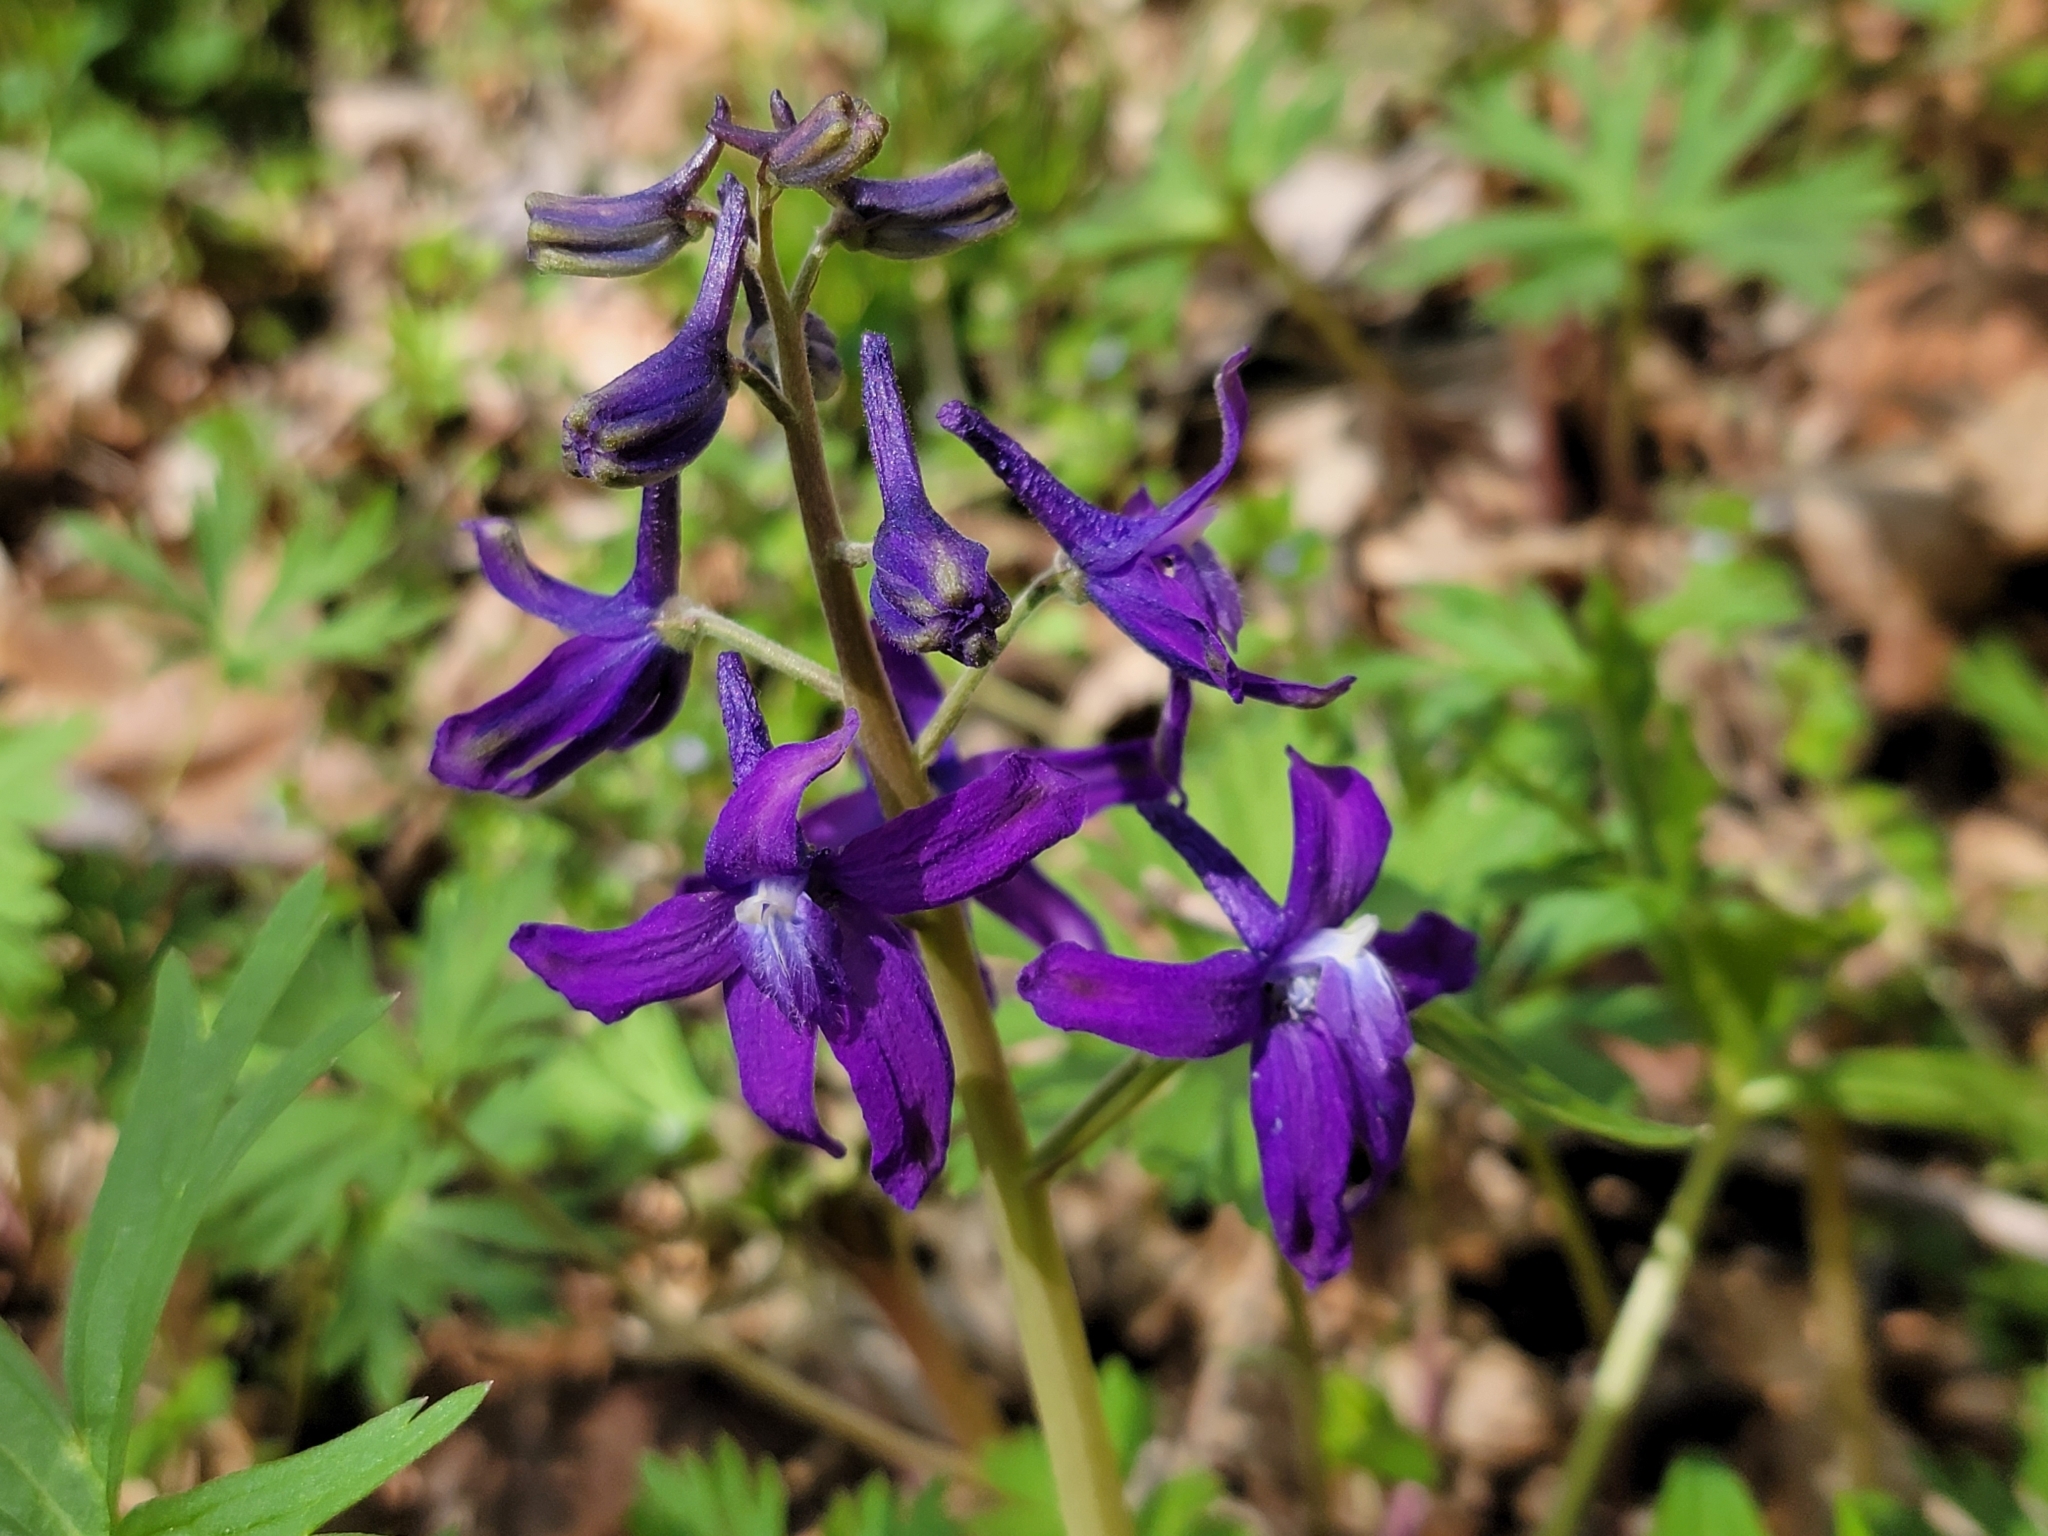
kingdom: Plantae
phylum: Tracheophyta
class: Magnoliopsida
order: Ranunculales
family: Ranunculaceae
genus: Delphinium
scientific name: Delphinium tricorne
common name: Dwarf larkspur
